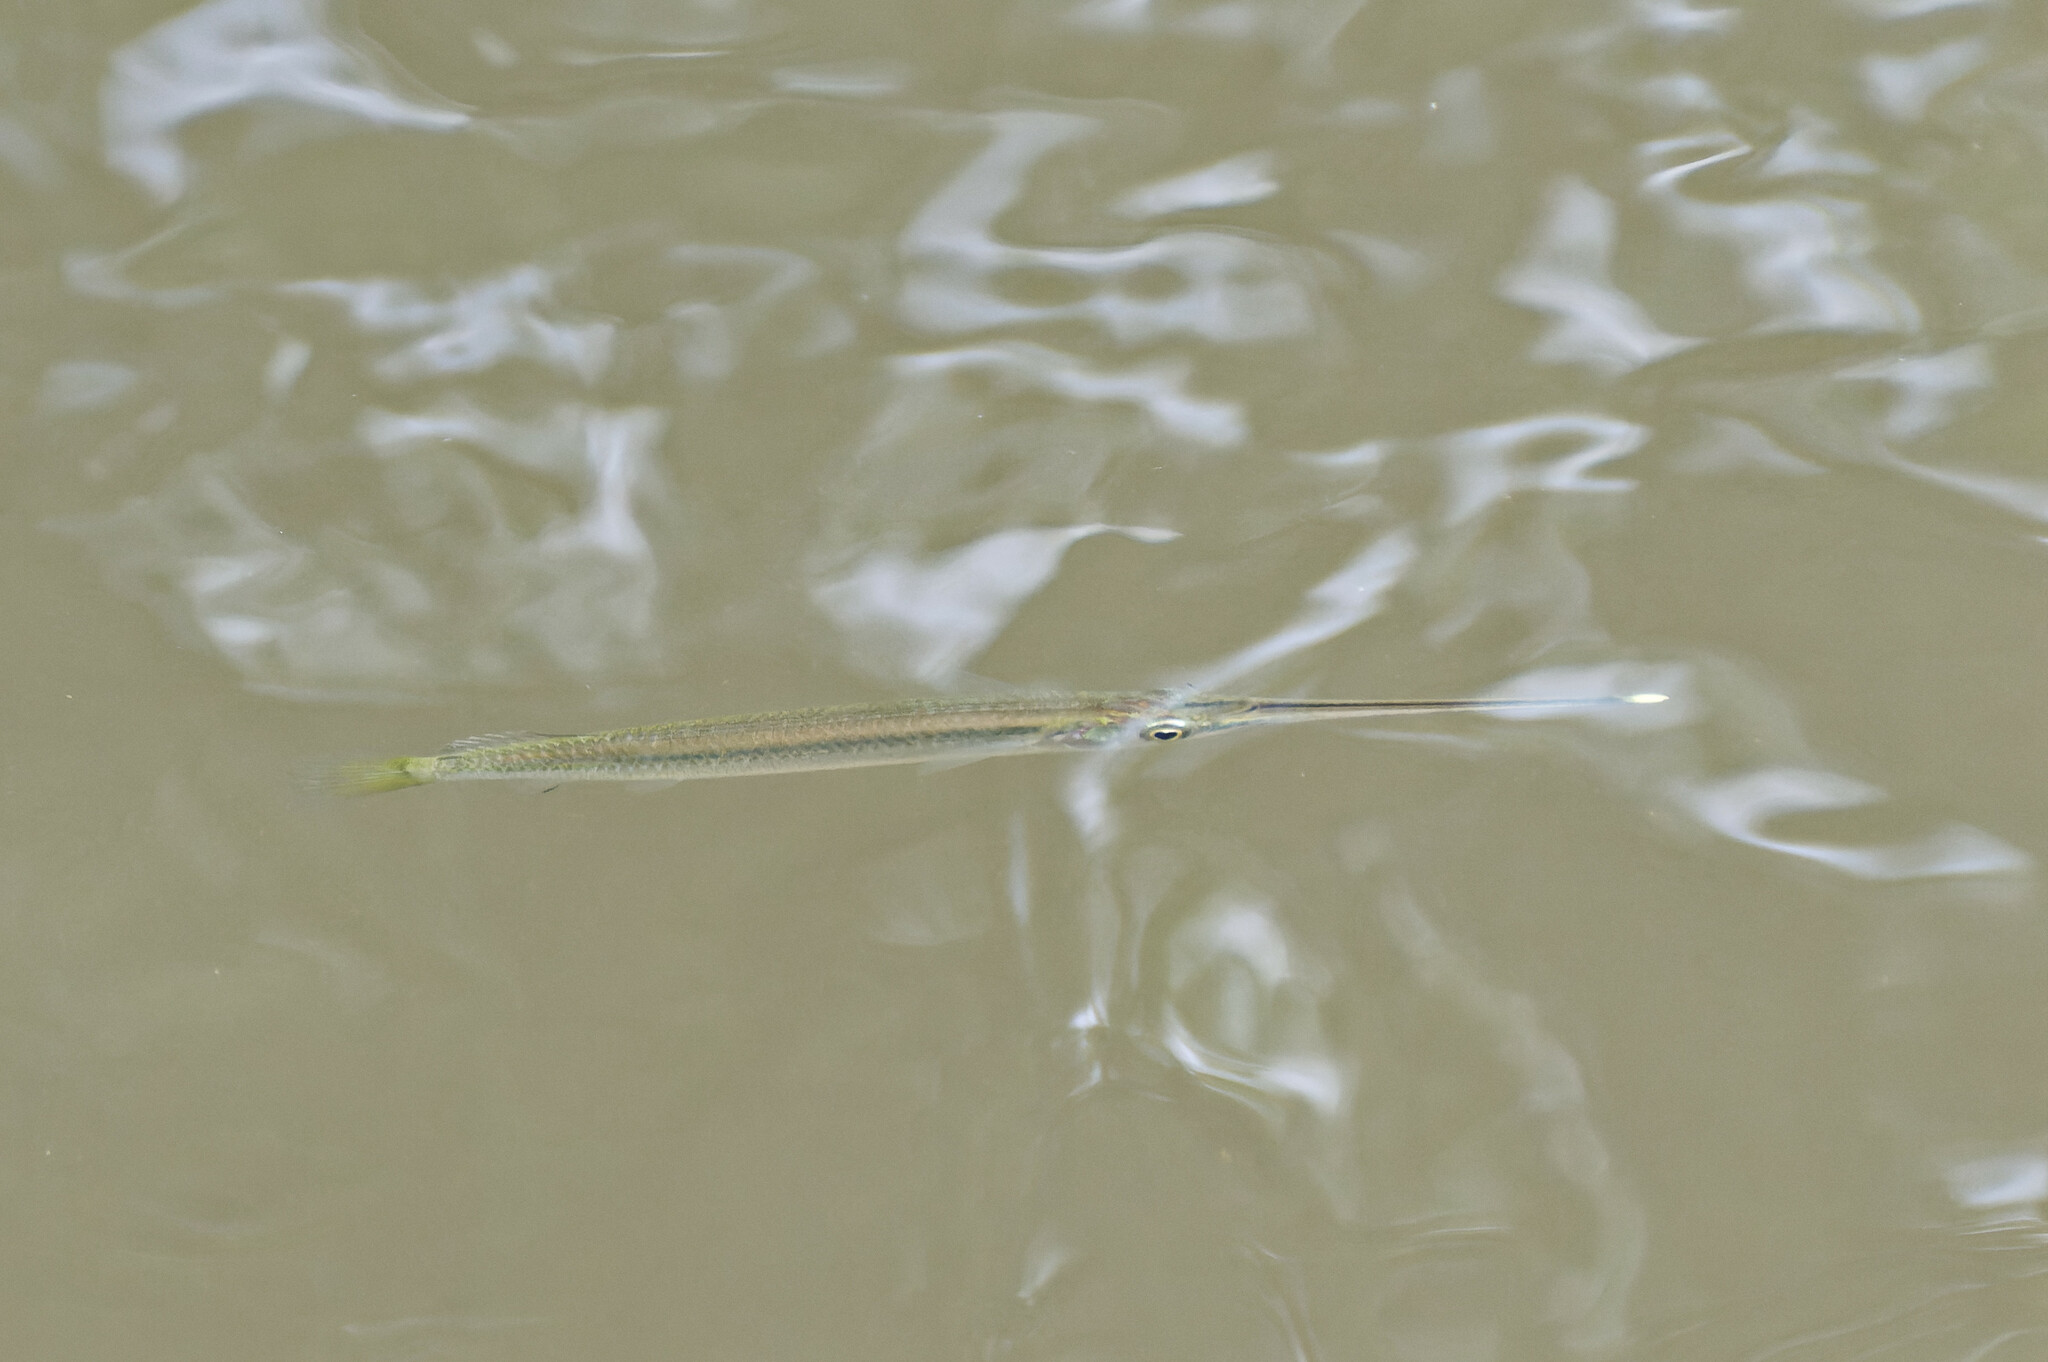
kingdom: Animalia
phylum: Chordata
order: Beloniformes
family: Zenarchopteridae
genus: Zenarchopterus
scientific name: Zenarchopterus buffonis
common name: Buffon's river-garfish
